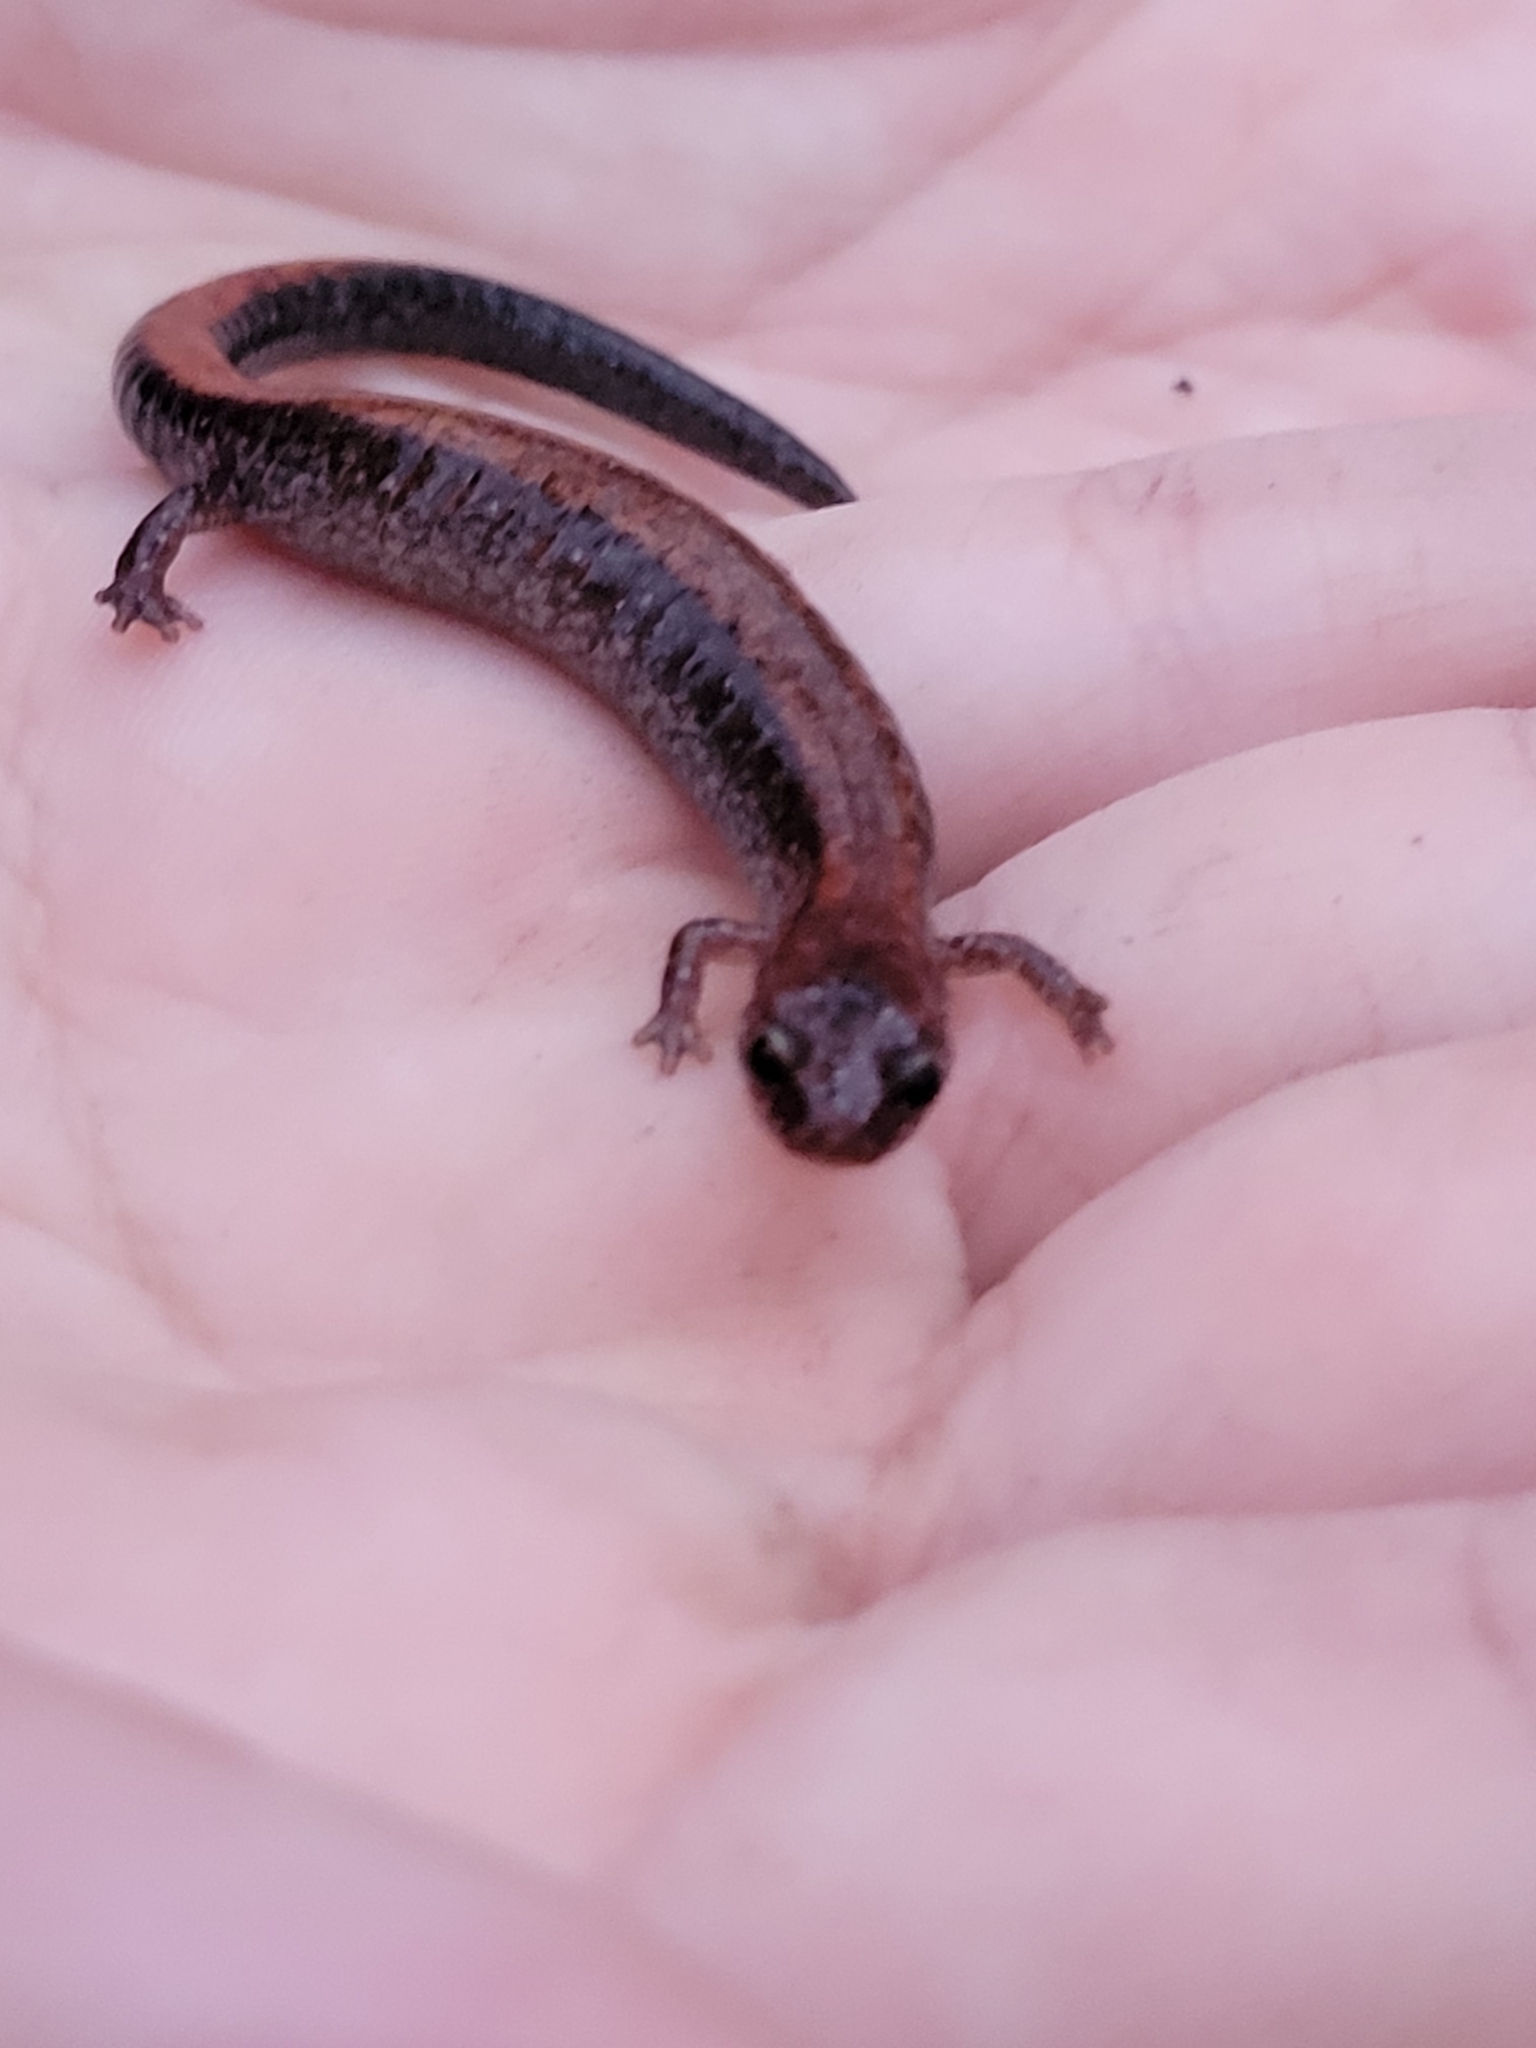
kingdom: Animalia
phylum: Chordata
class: Amphibia
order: Caudata
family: Plethodontidae
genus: Plethodon
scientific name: Plethodon cinereus
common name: Redback salamander
